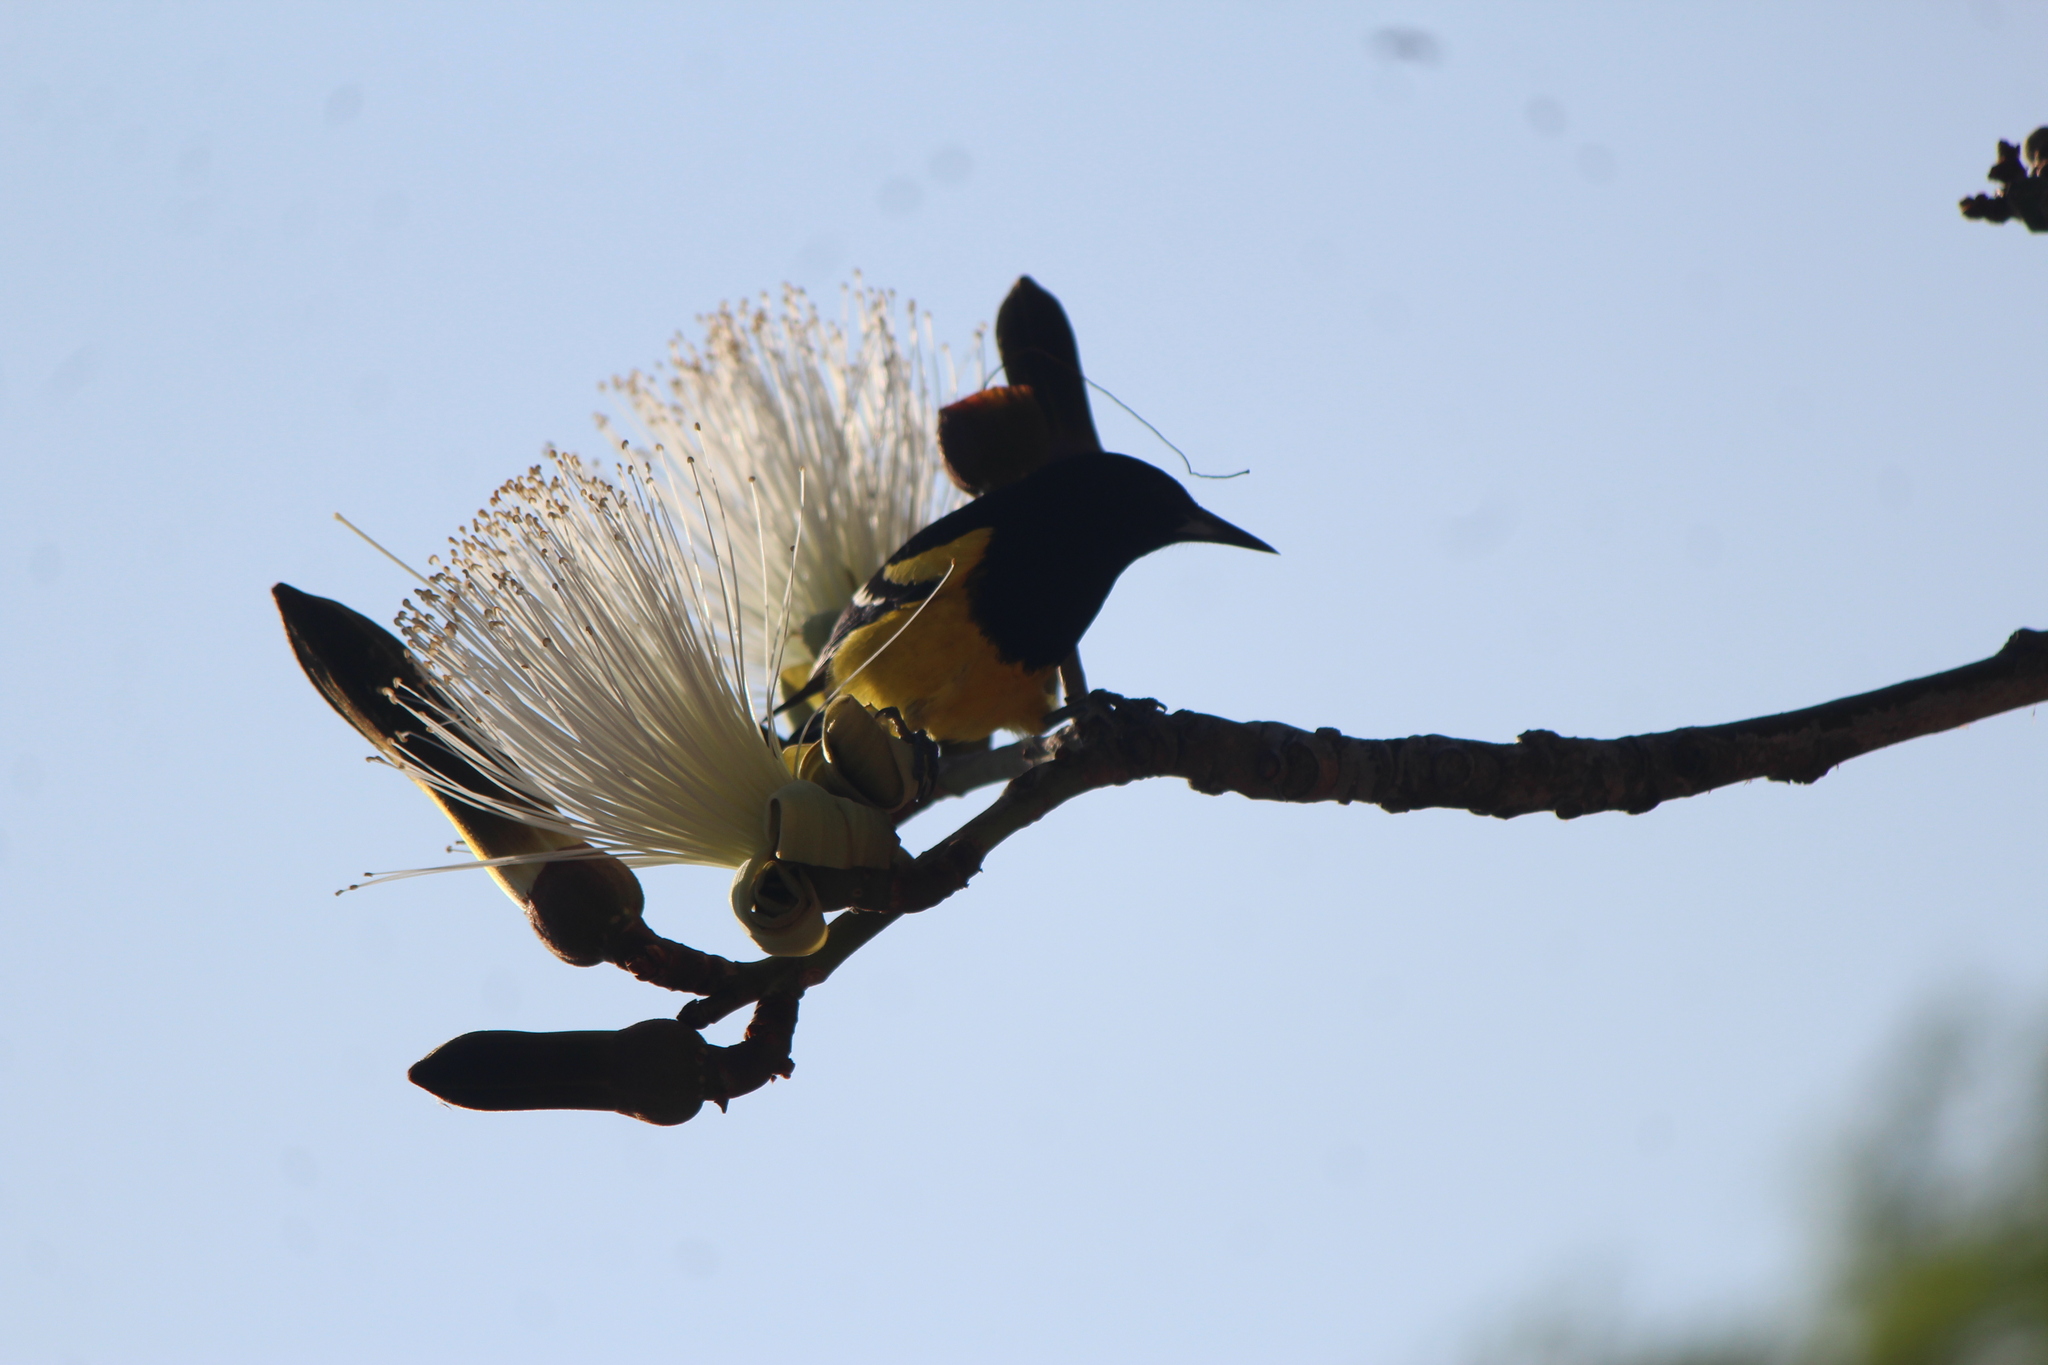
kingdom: Animalia
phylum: Chordata
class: Aves
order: Passeriformes
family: Icteridae
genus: Icterus
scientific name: Icterus parisorum
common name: Scott's oriole
